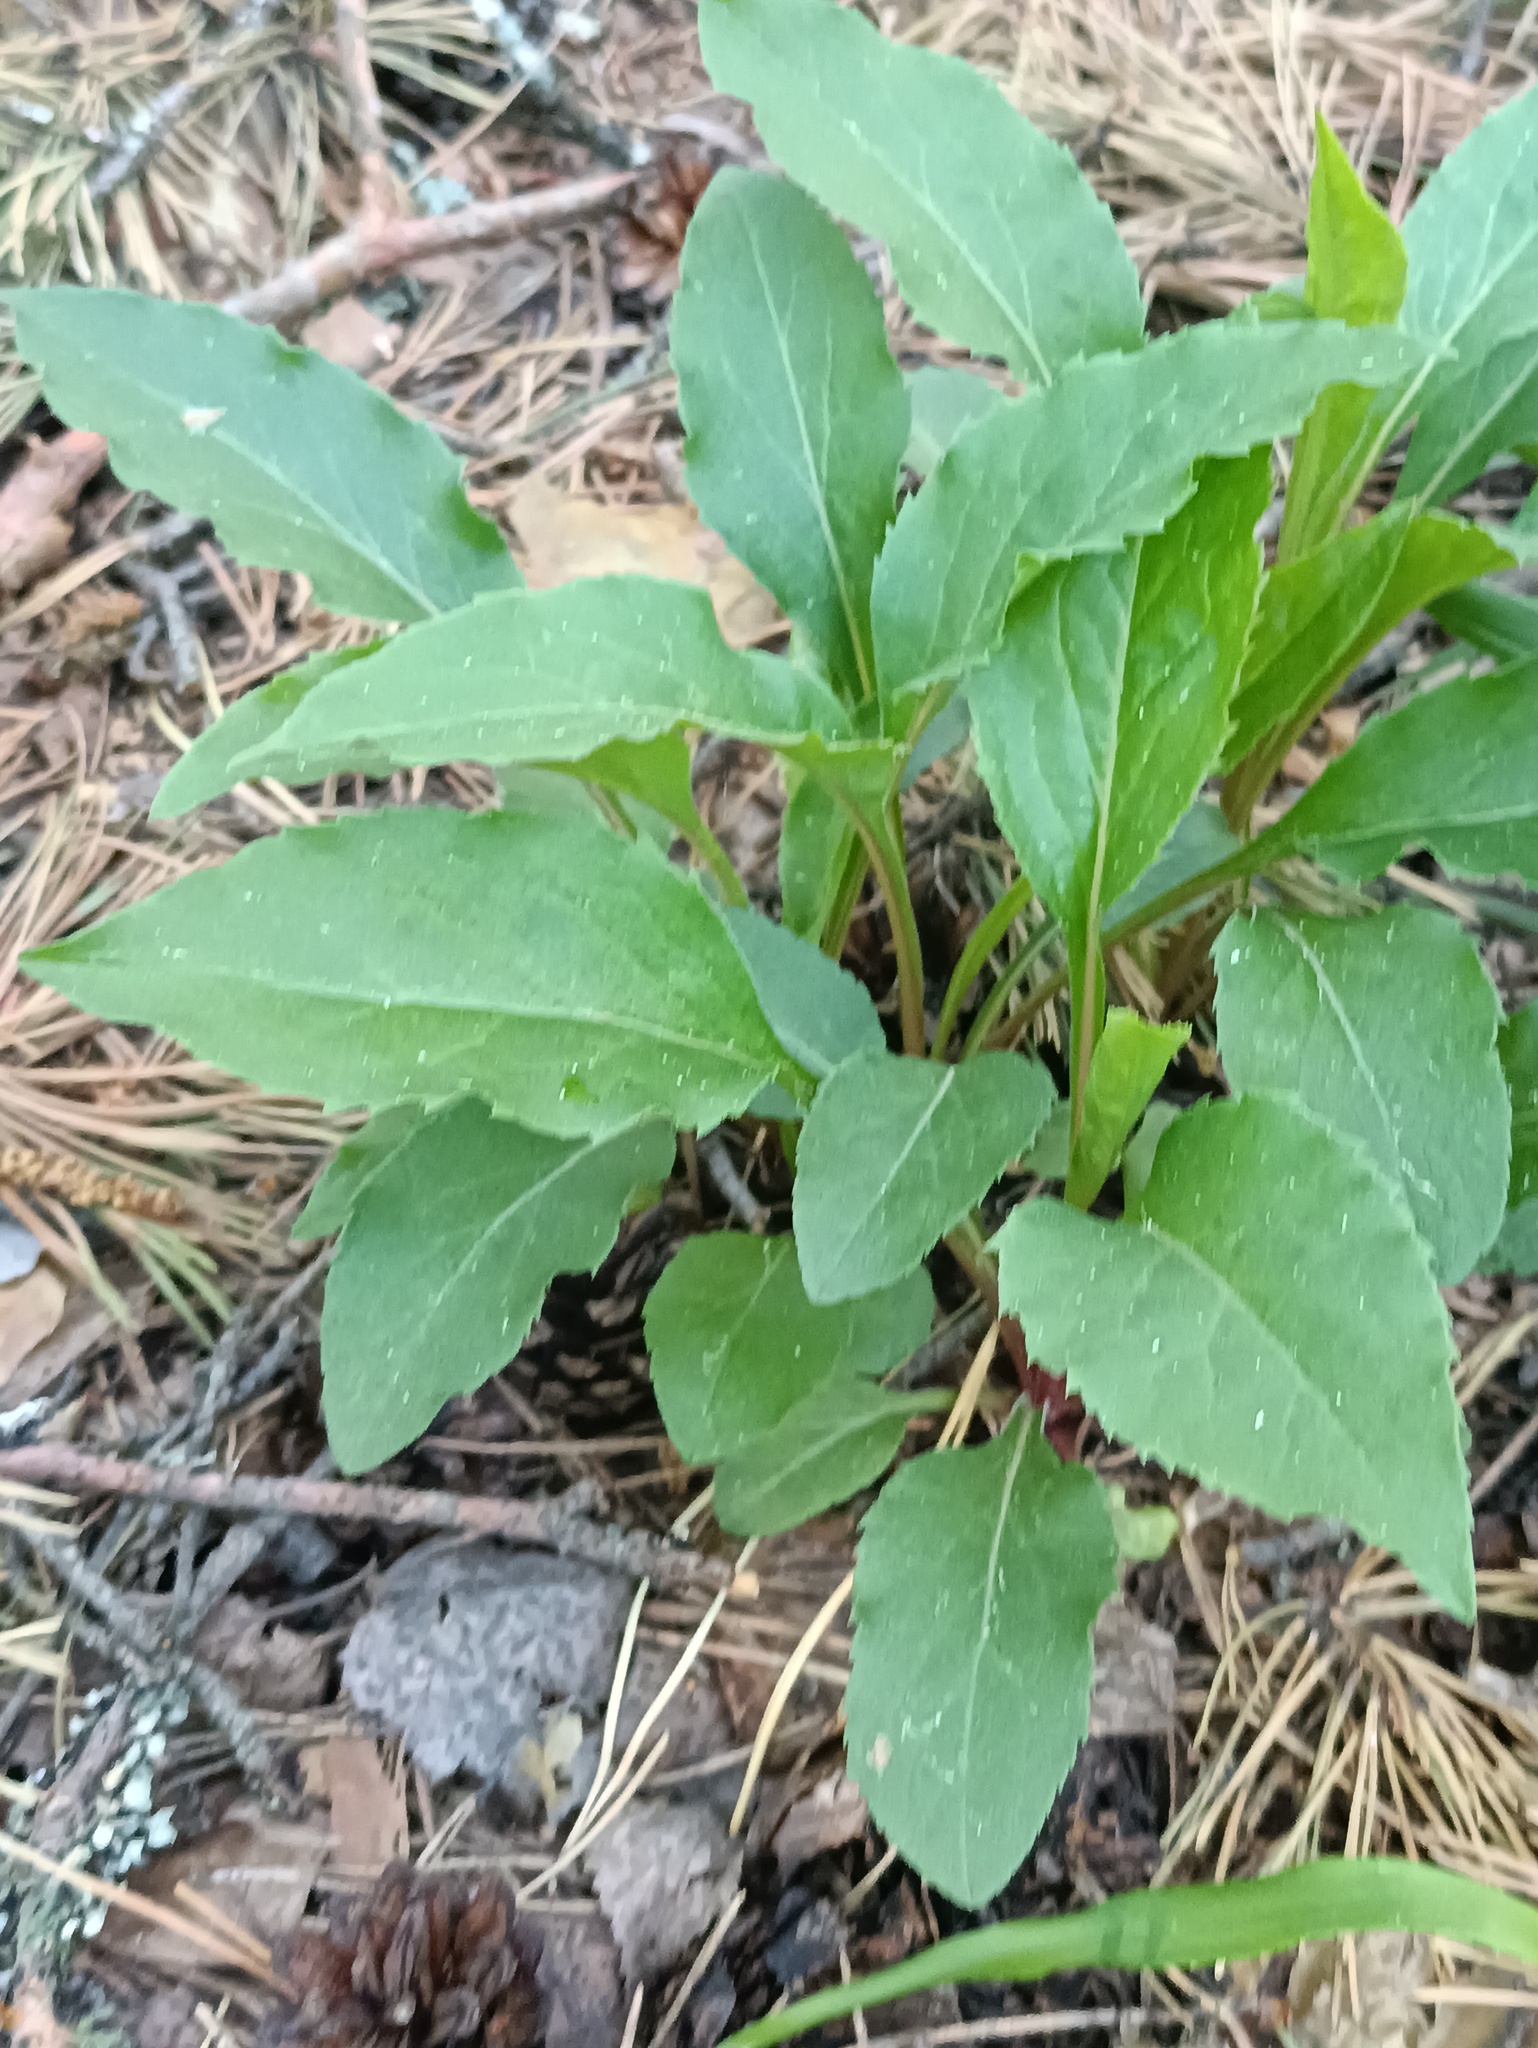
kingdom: Plantae
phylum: Tracheophyta
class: Magnoliopsida
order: Asterales
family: Asteraceae
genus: Solidago
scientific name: Solidago virgaurea
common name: Goldenrod
